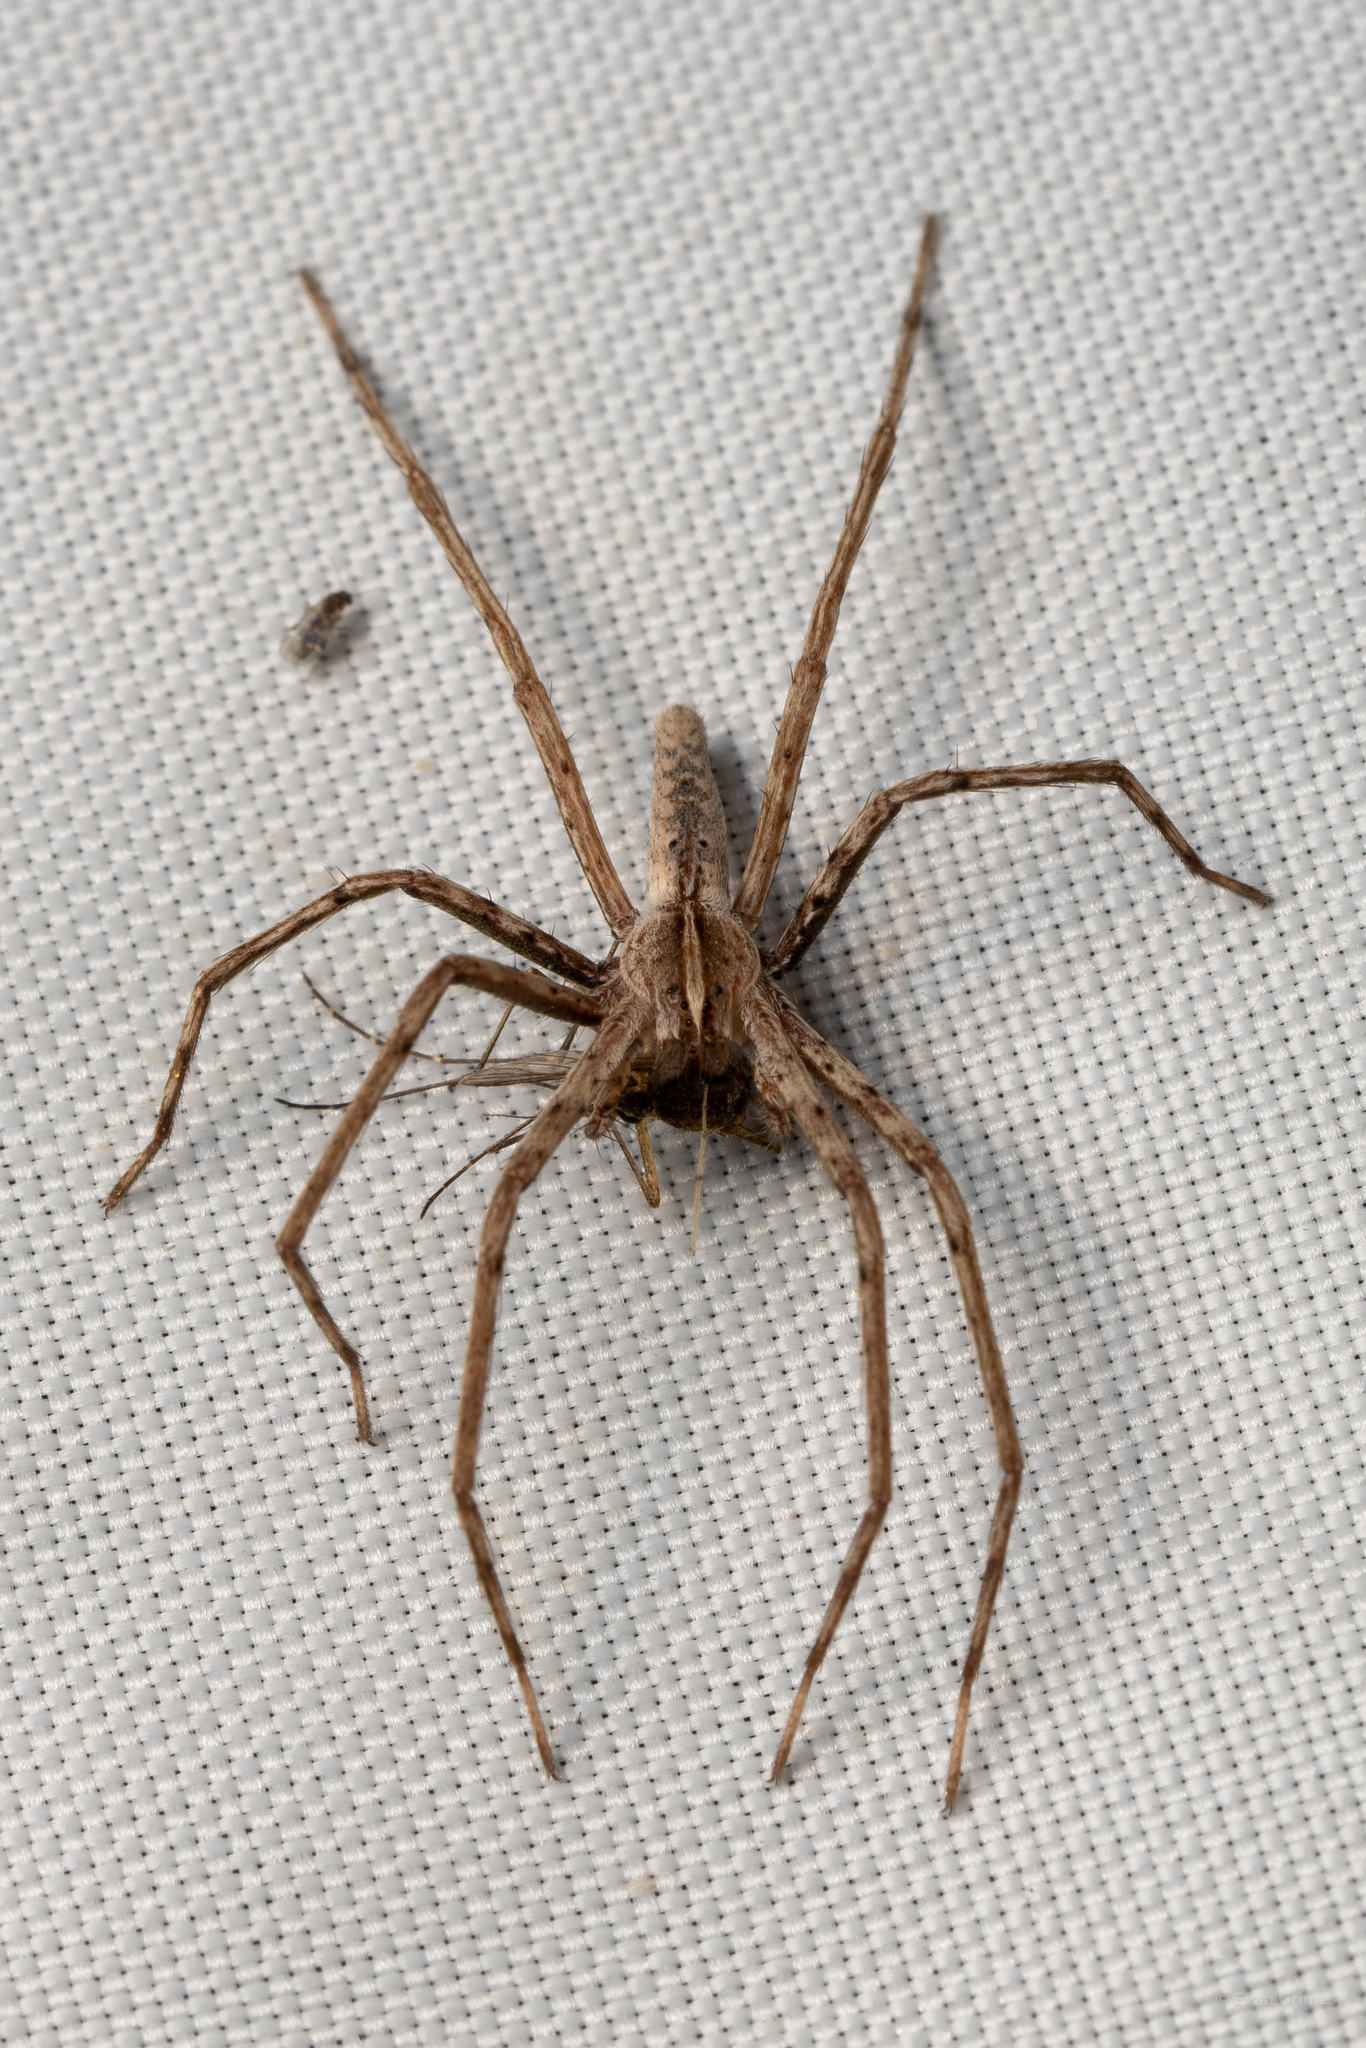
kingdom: Animalia
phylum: Arthropoda
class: Arachnida
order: Araneae
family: Pisauridae
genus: Pisaurina
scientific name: Pisaurina dubia
